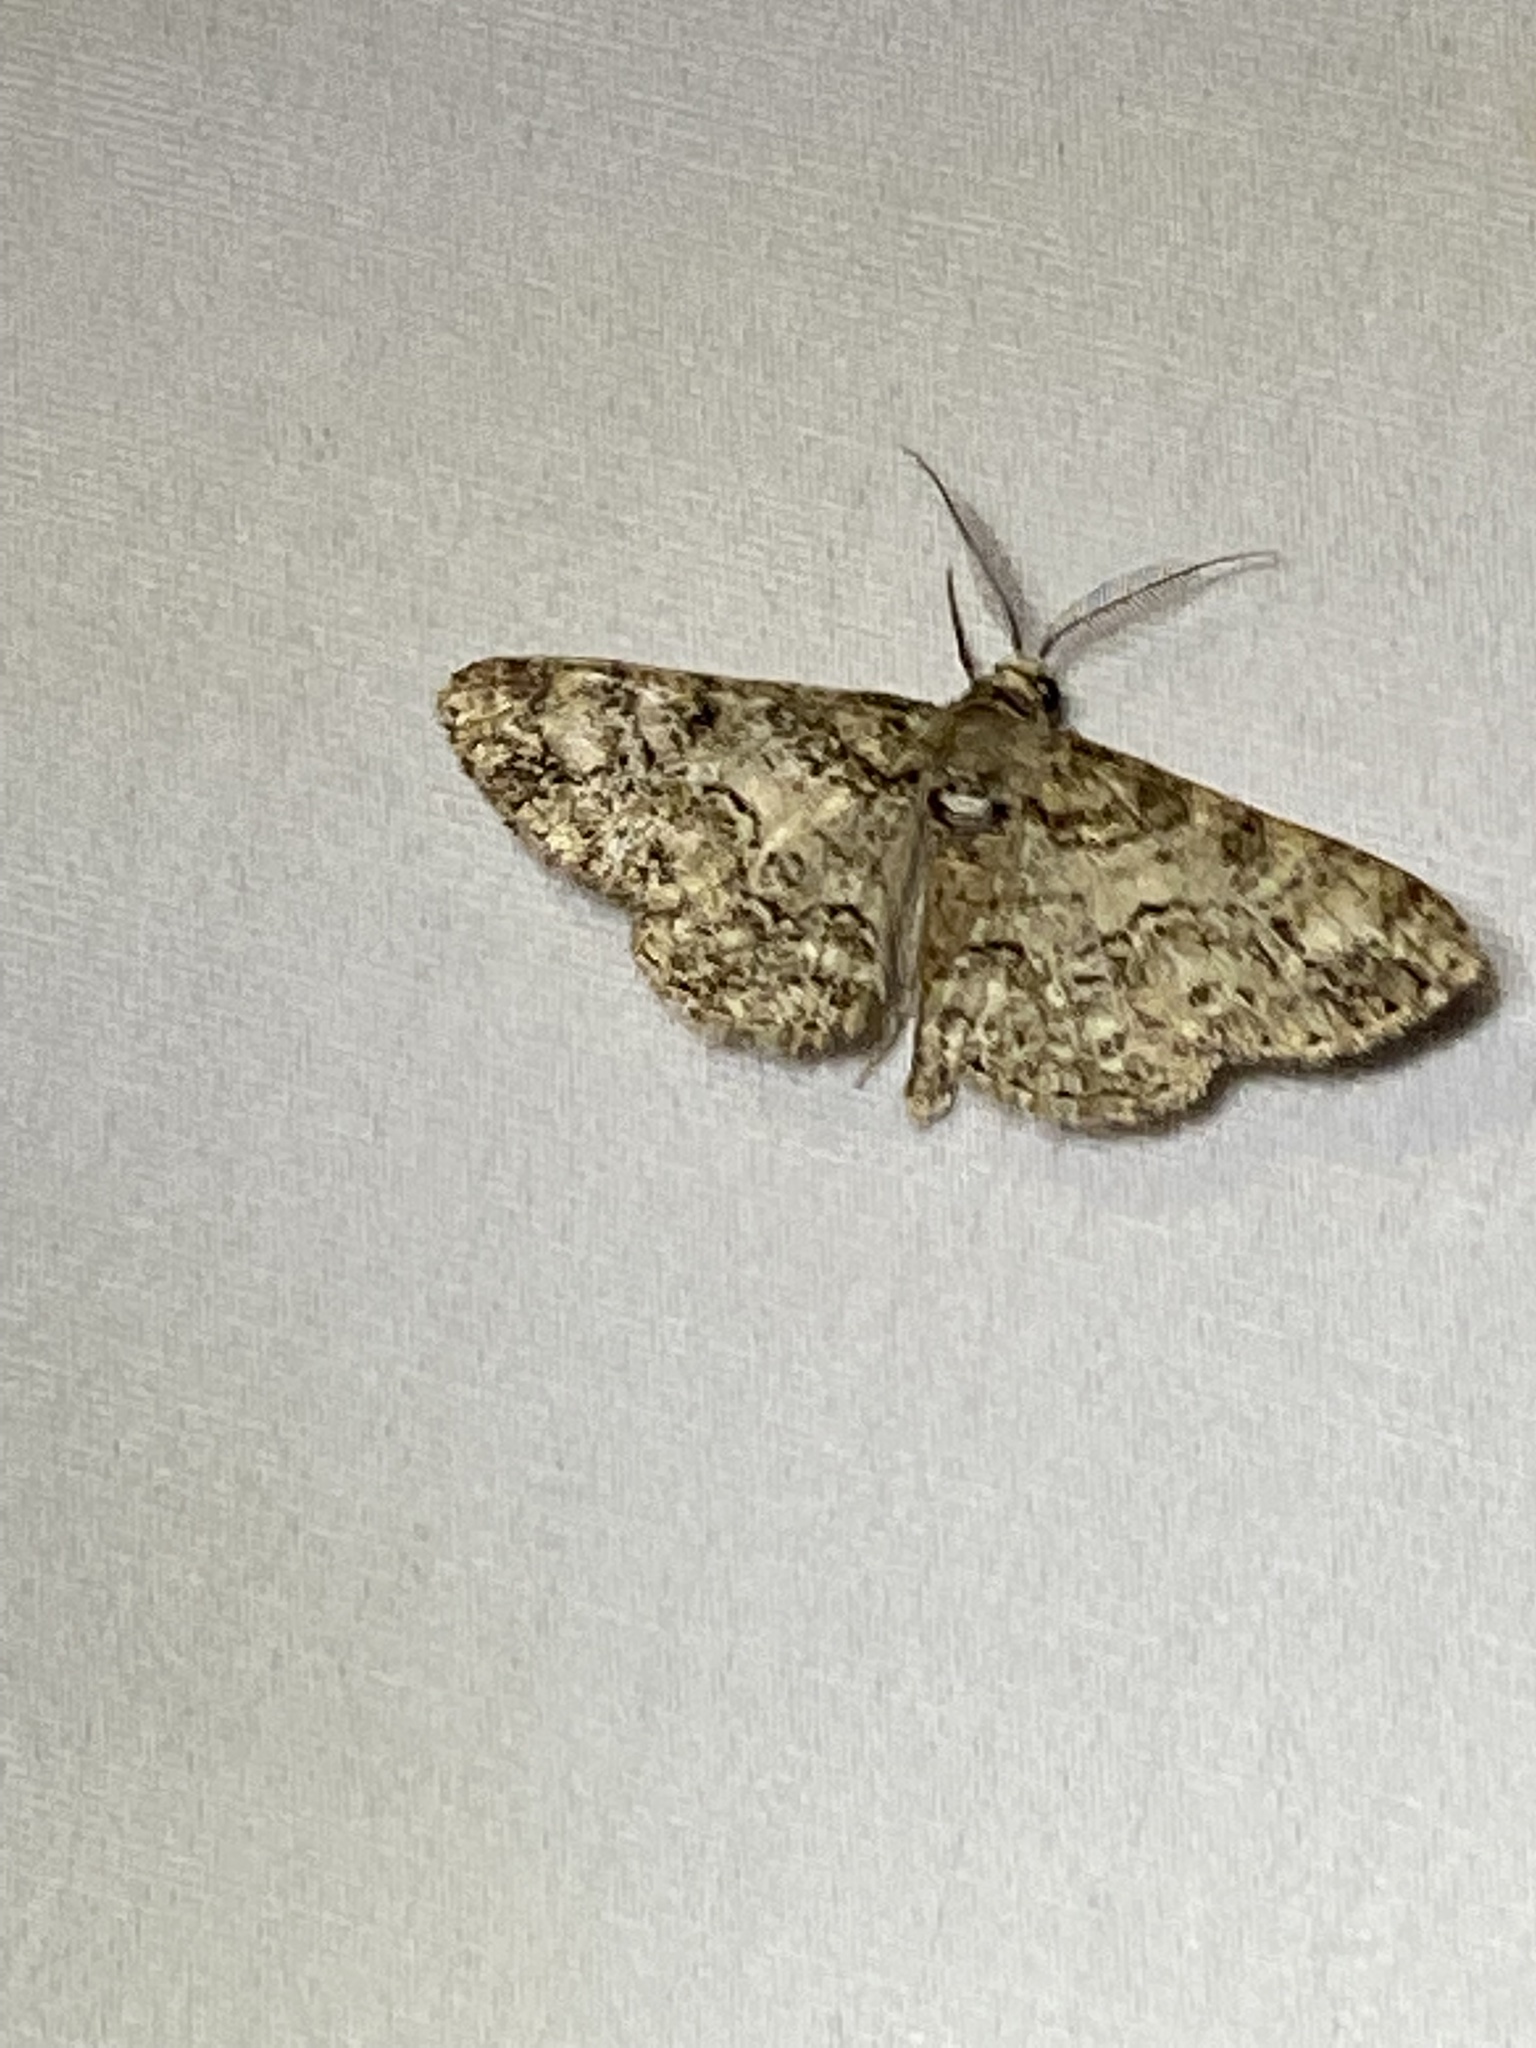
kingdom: Animalia
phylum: Arthropoda
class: Insecta
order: Lepidoptera
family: Geometridae
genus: Cleora
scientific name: Cleora sublunaria
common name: Double-lined gray
